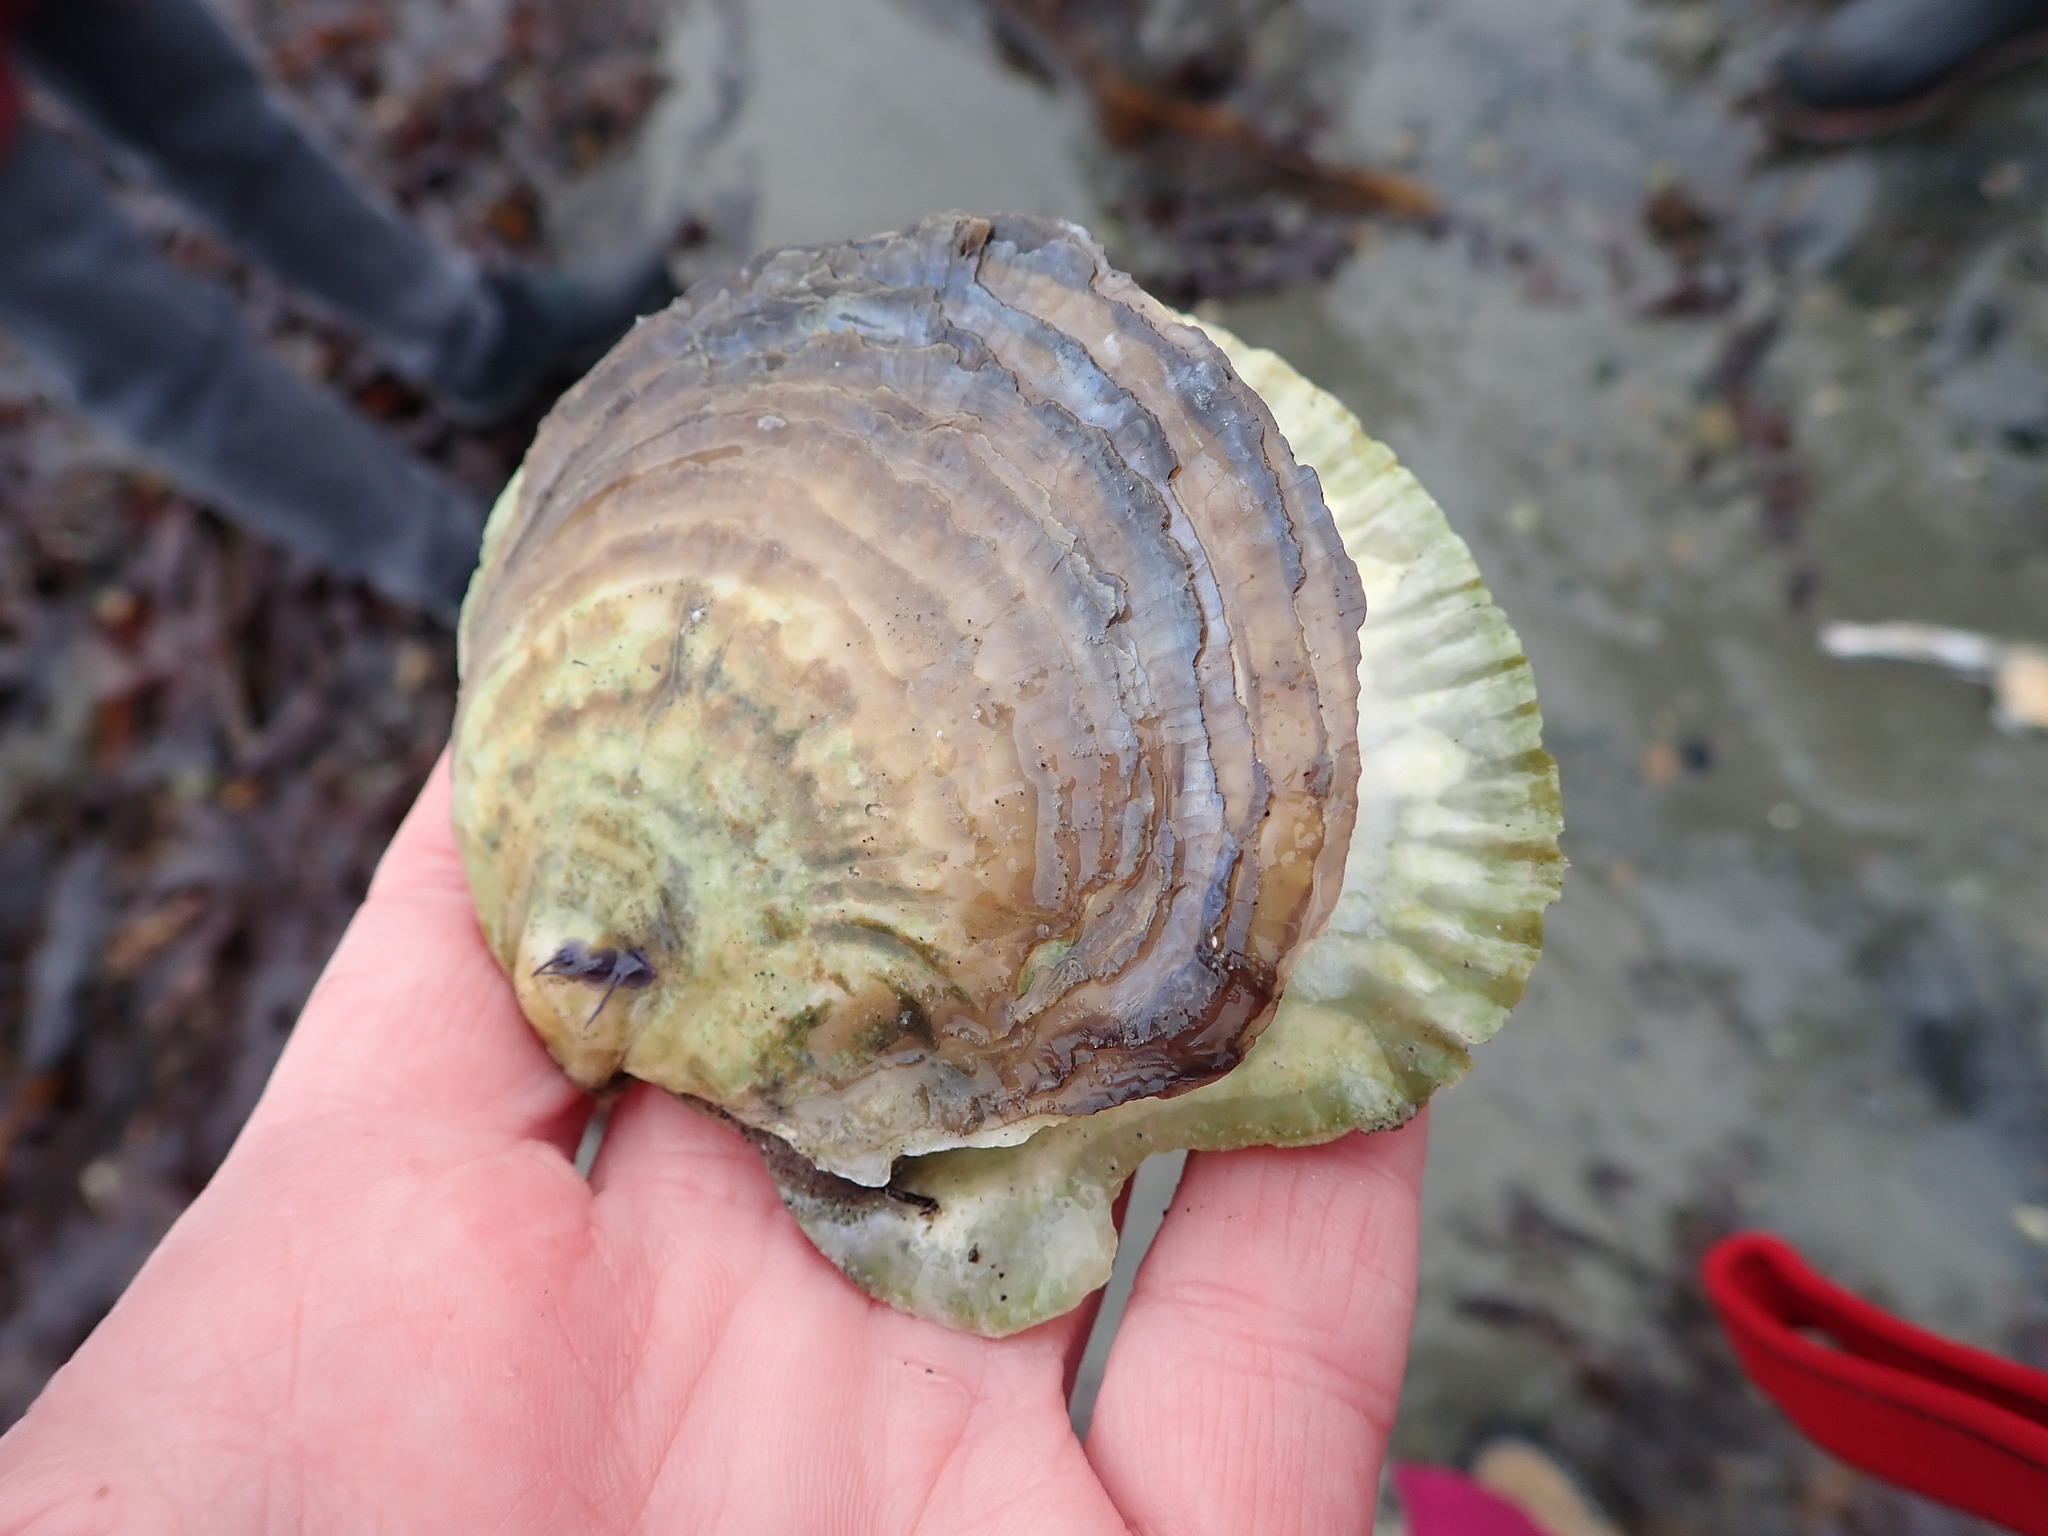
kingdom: Animalia
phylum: Mollusca
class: Bivalvia
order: Ostreida
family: Ostreidae
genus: Ostrea
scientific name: Ostrea edulis
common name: Flat oyster
